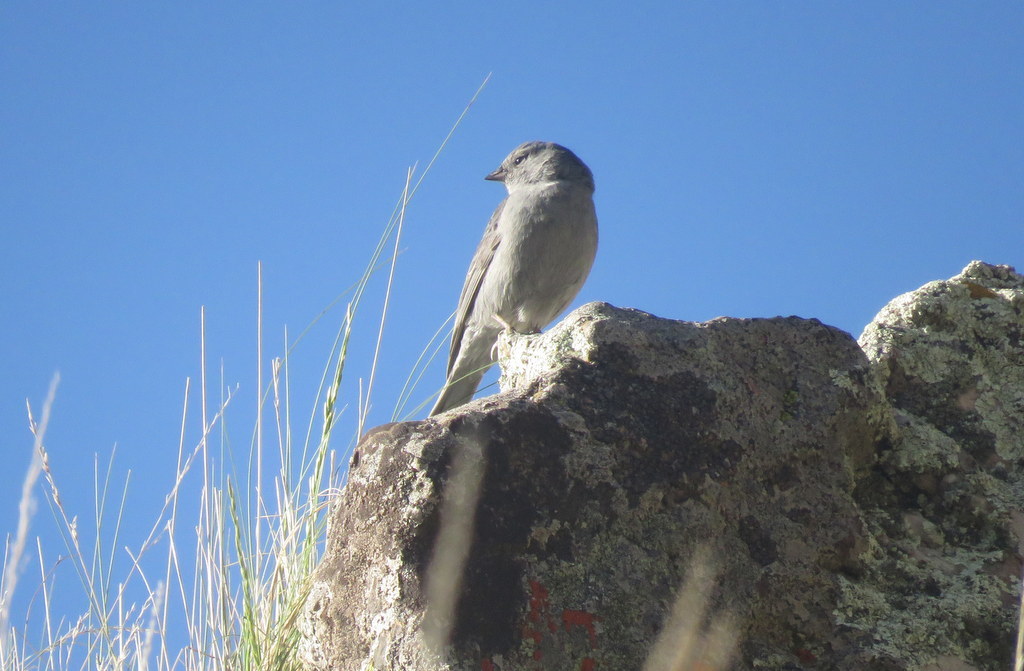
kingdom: Animalia
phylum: Chordata
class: Aves
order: Passeriformes
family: Thraupidae
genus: Geospizopsis
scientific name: Geospizopsis unicolor
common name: Plumbeous sierra-finch
